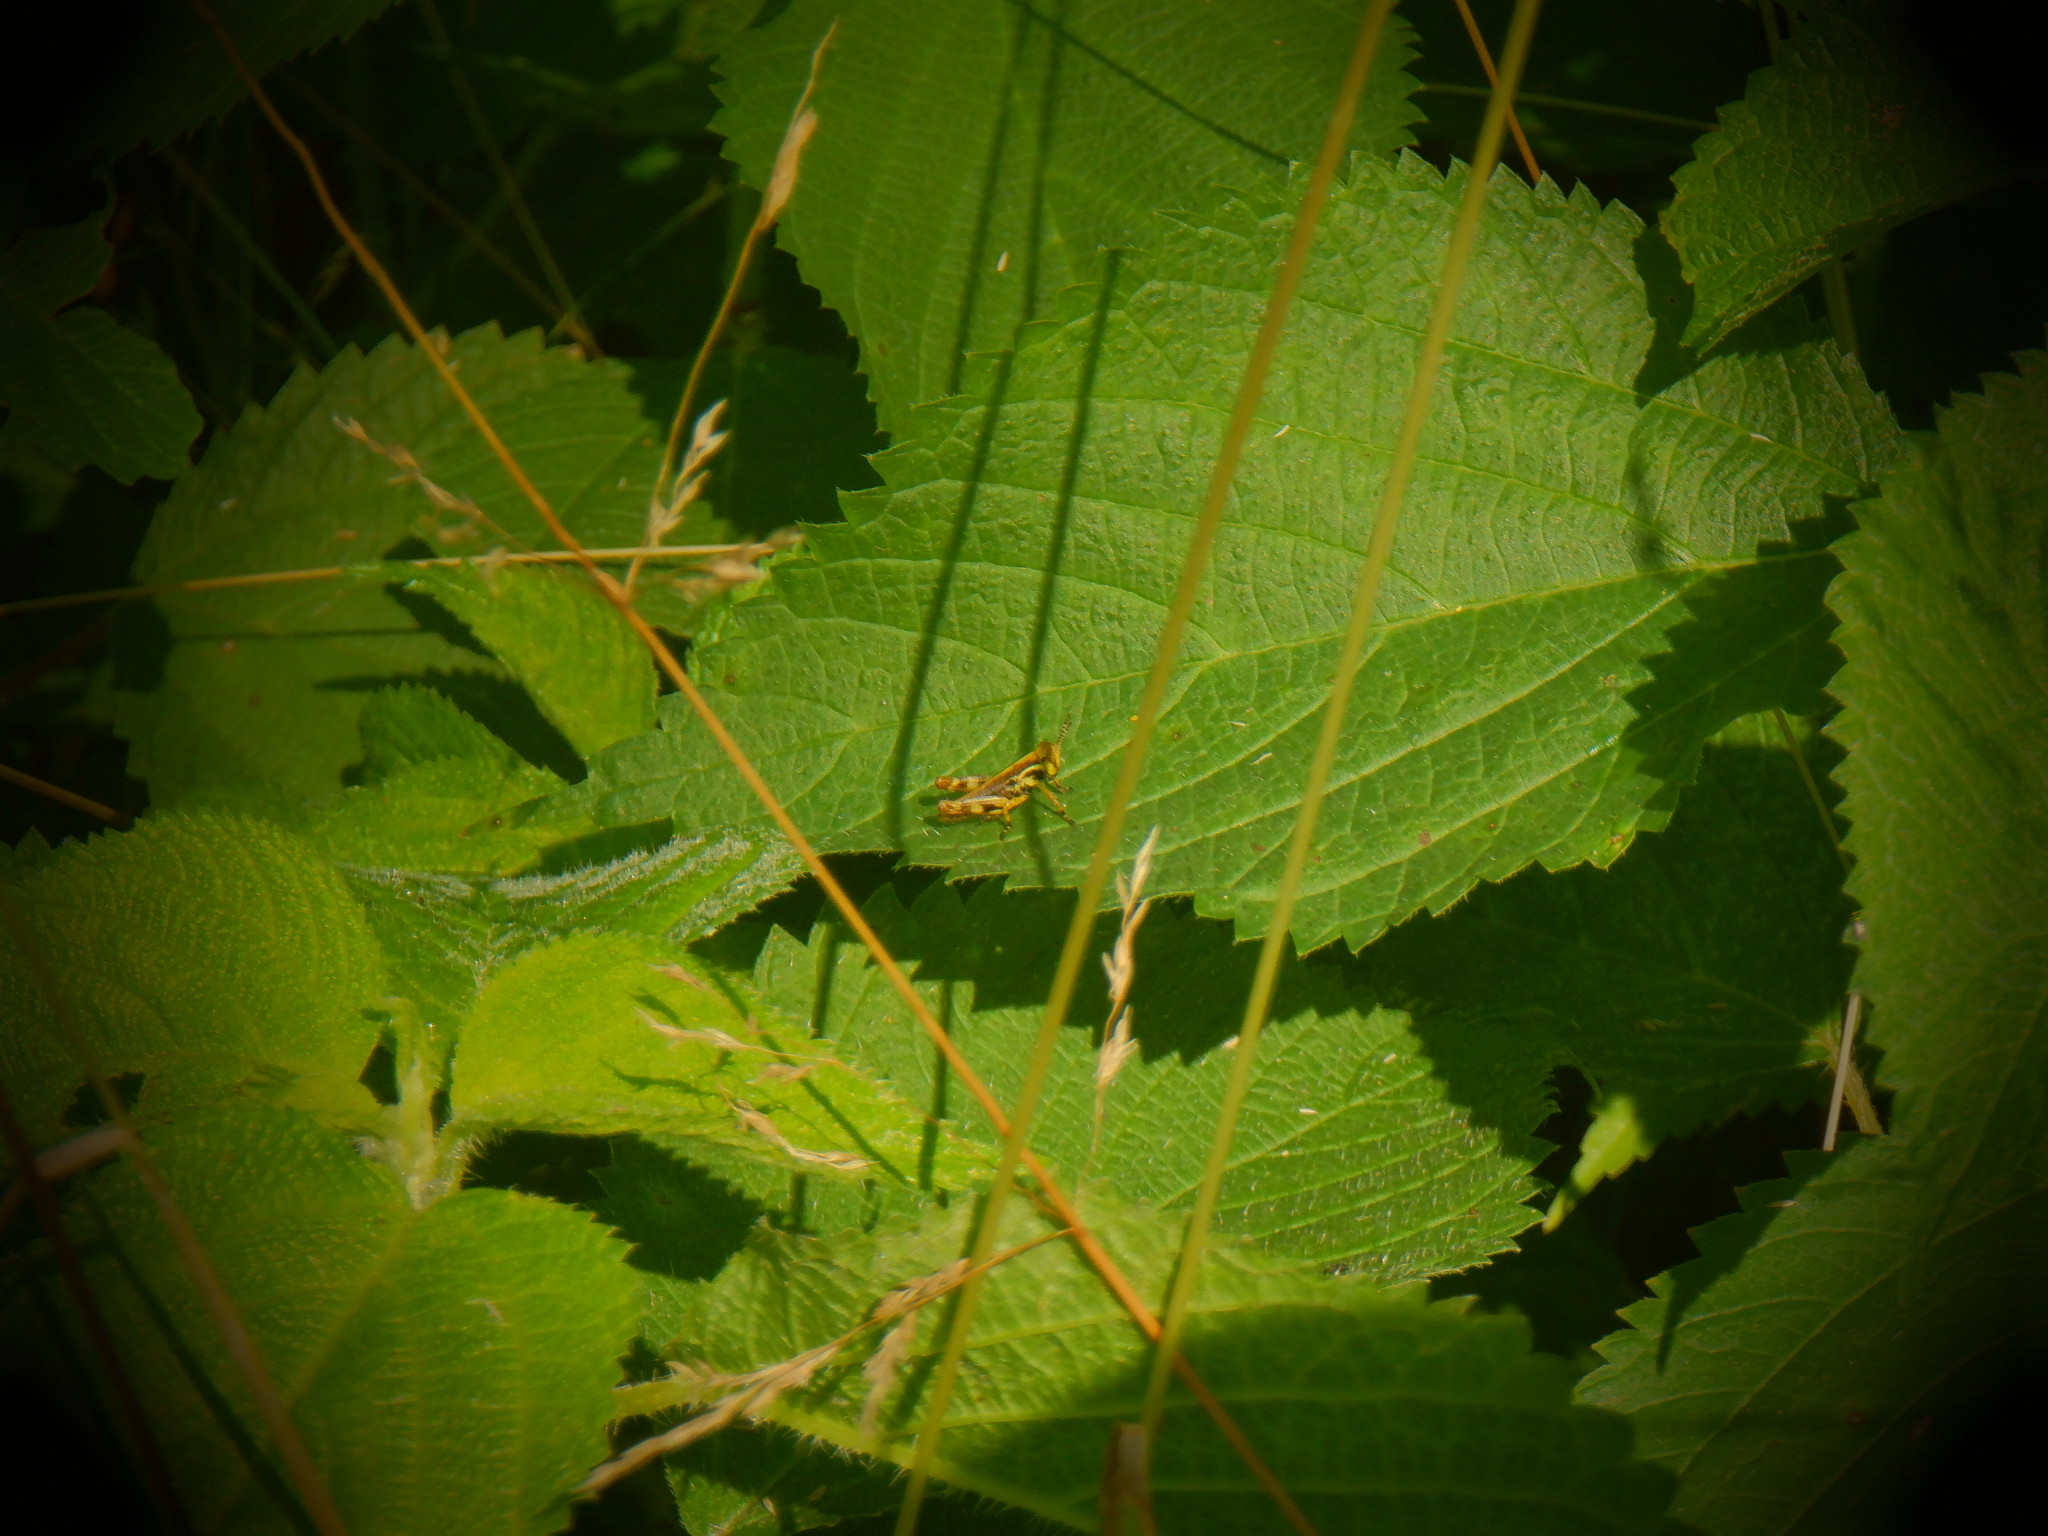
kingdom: Animalia
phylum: Arthropoda
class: Insecta
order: Orthoptera
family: Acrididae
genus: Melanoplus
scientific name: Melanoplus walshii
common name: Walsh's locust
